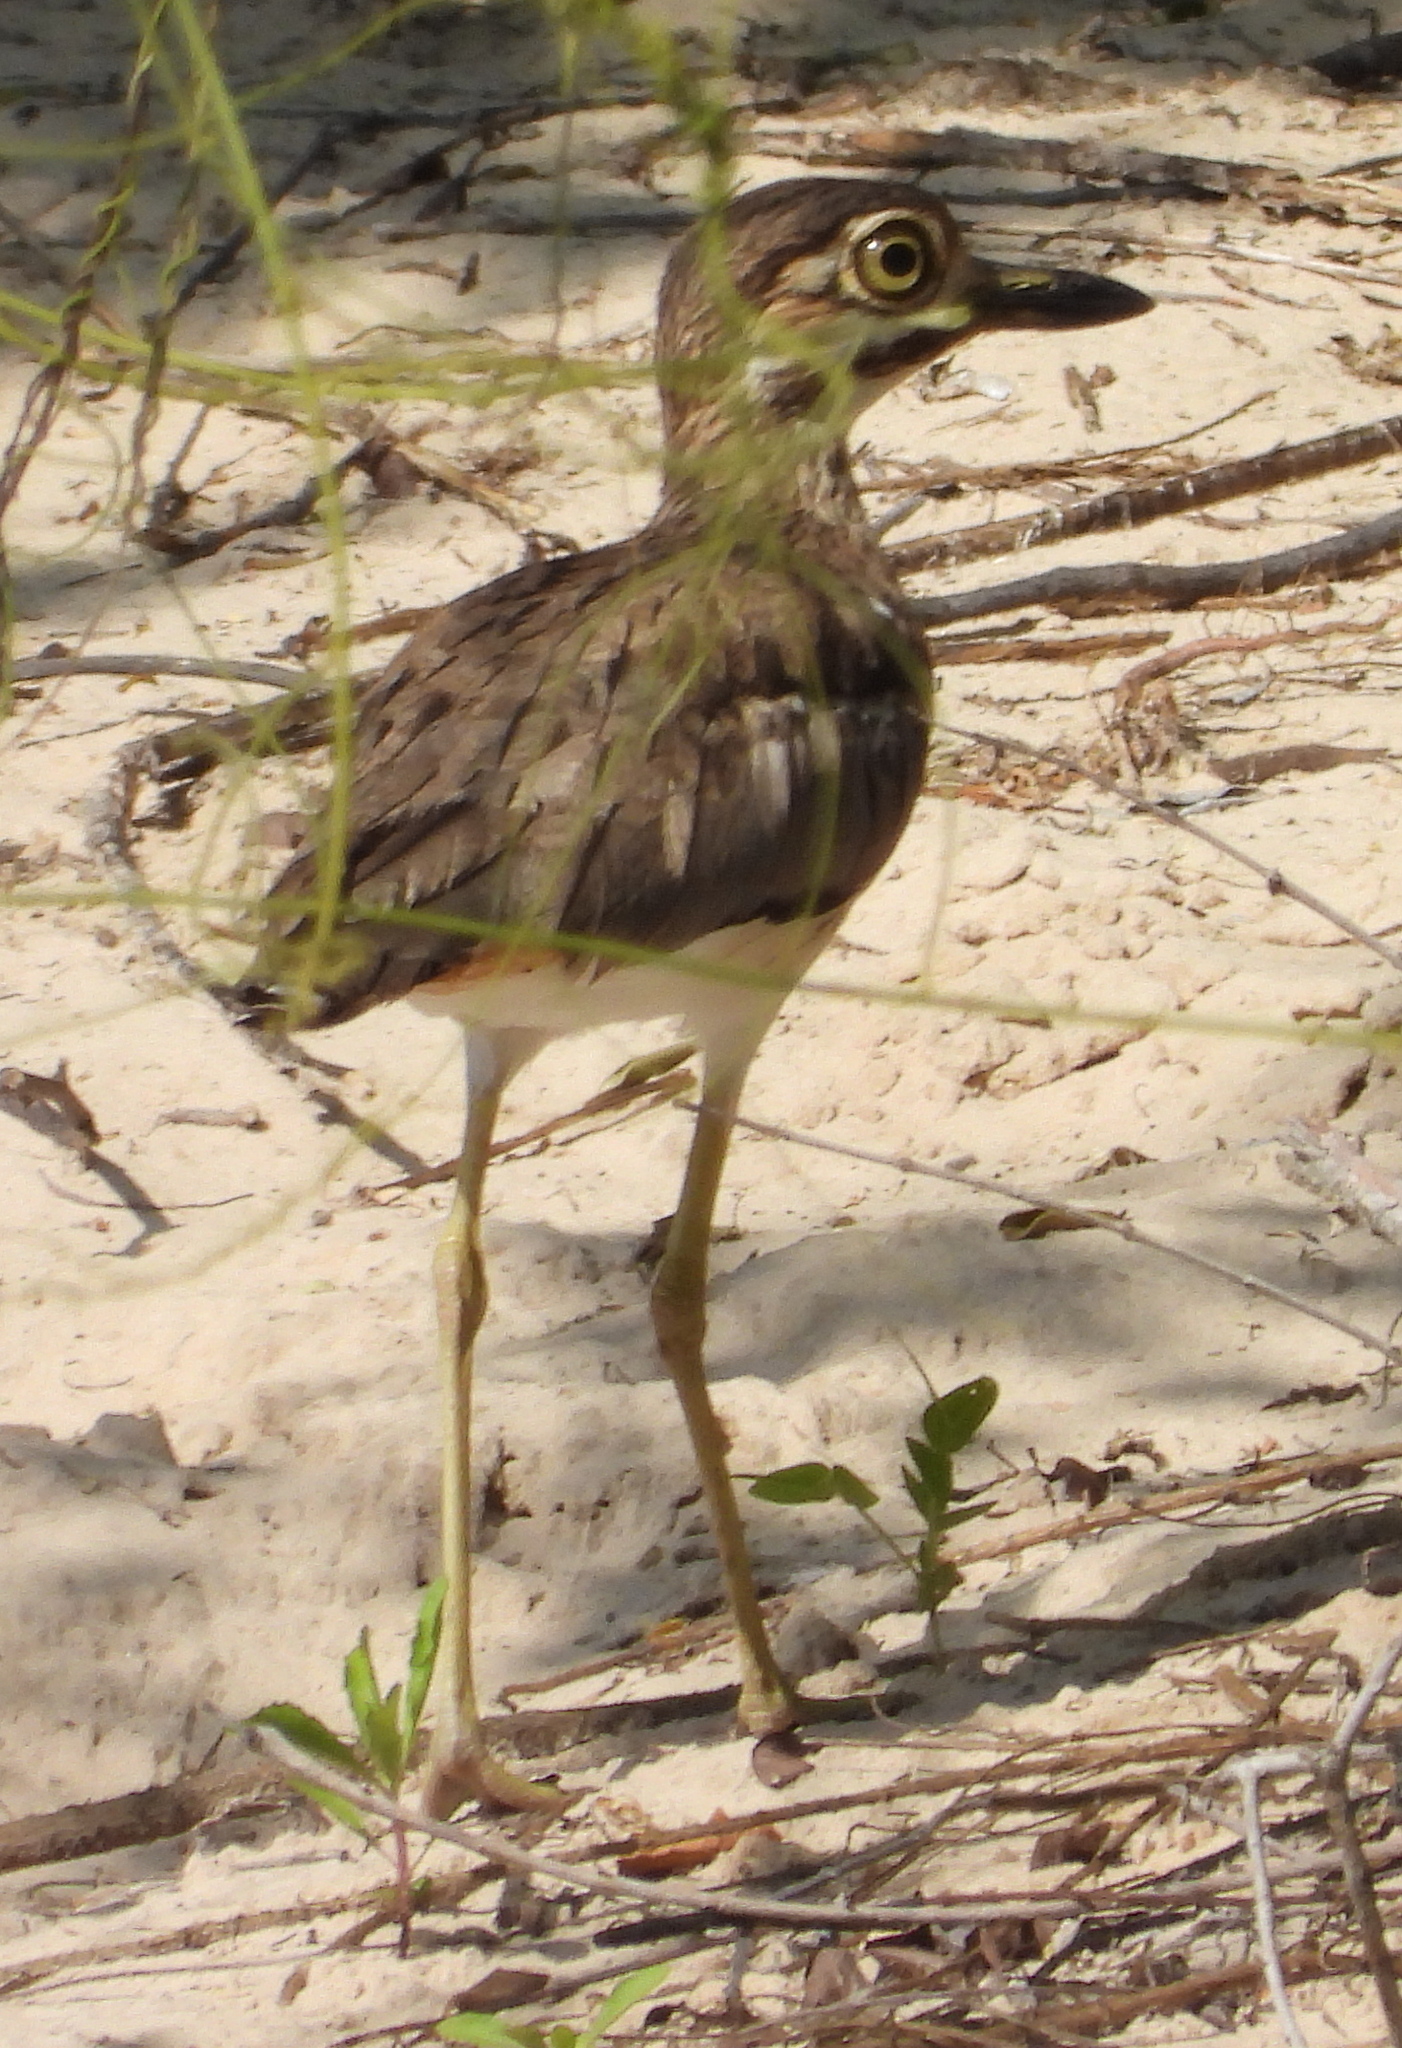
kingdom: Animalia
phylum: Chordata
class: Aves
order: Charadriiformes
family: Burhinidae
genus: Burhinus
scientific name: Burhinus vermiculatus
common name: Water thick-knee
